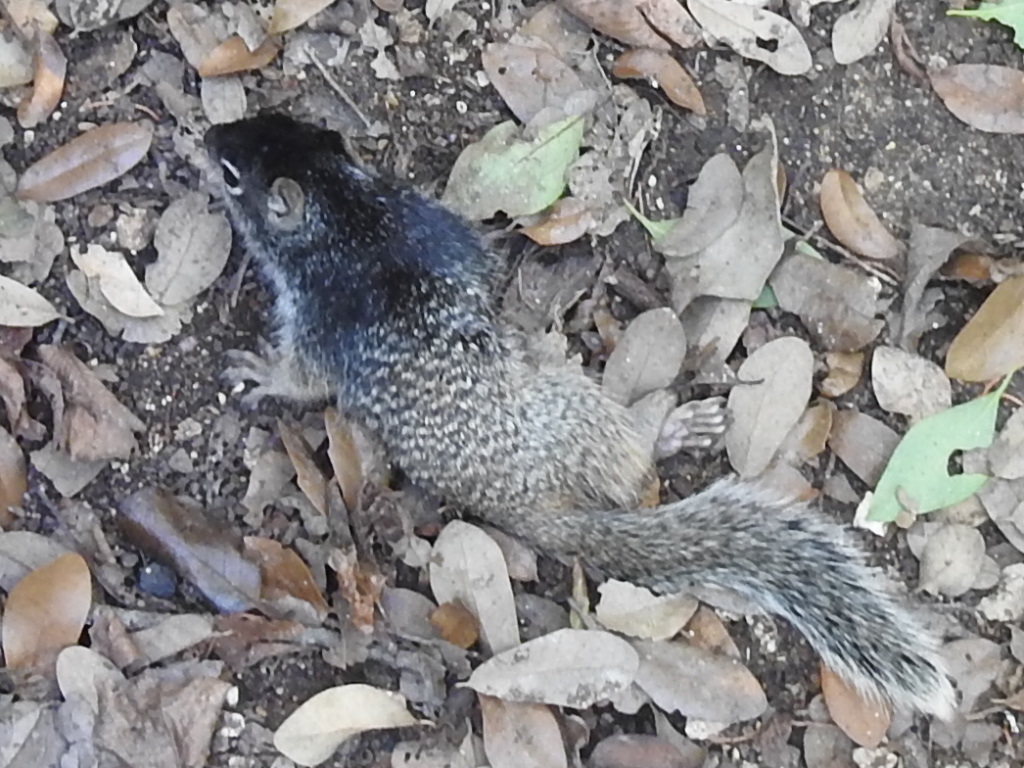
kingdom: Animalia
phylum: Chordata
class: Mammalia
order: Rodentia
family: Sciuridae
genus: Otospermophilus
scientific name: Otospermophilus variegatus
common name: Rock squirrel
